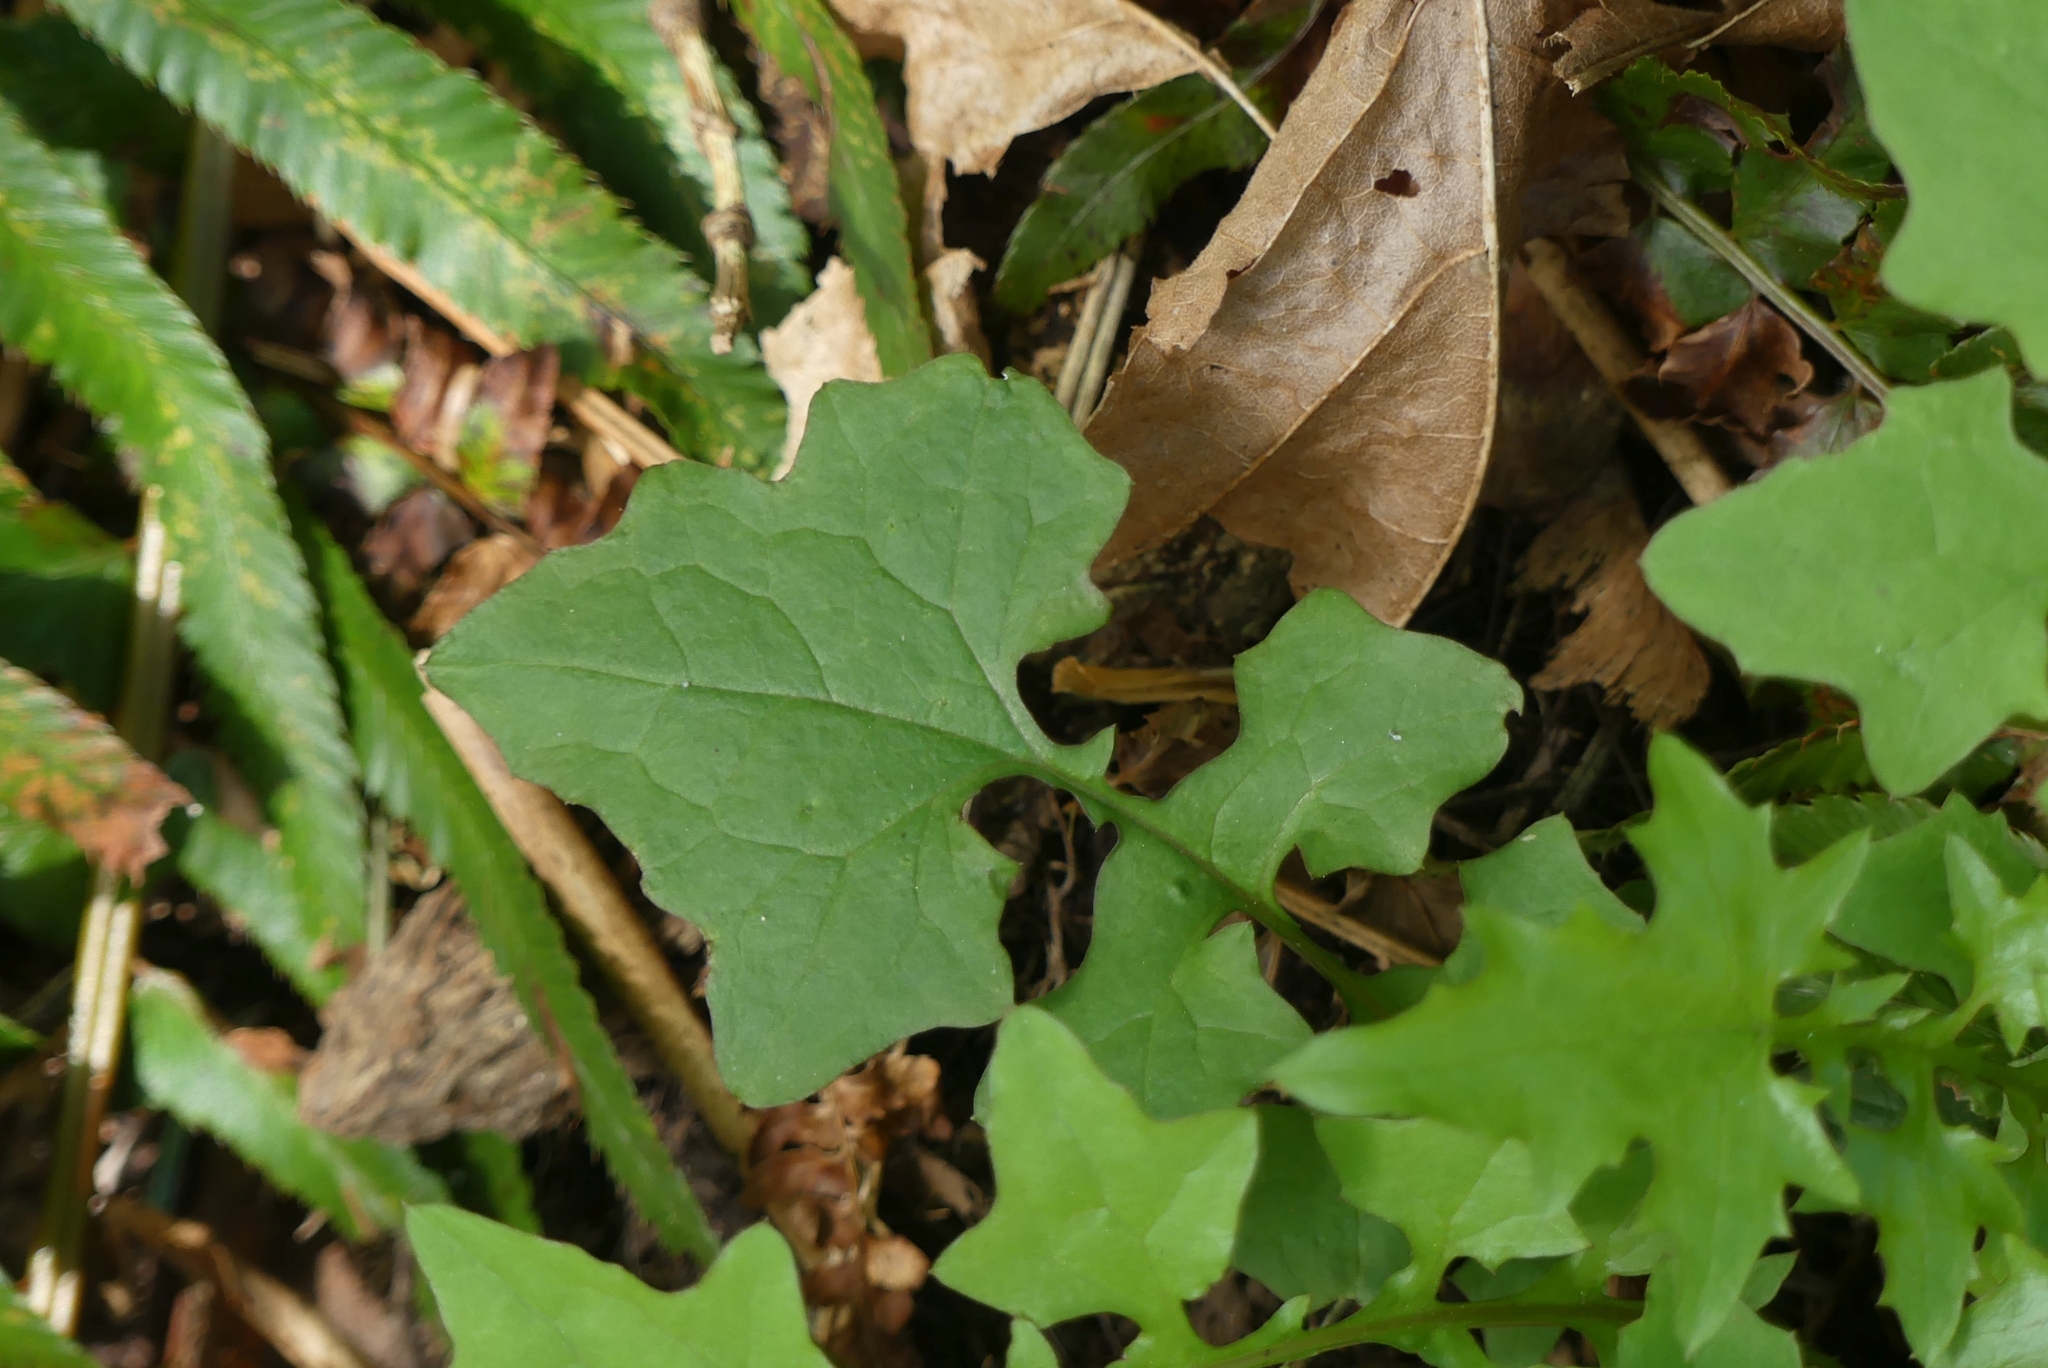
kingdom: Plantae
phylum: Tracheophyta
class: Magnoliopsida
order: Asterales
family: Asteraceae
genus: Mycelis
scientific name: Mycelis muralis
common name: Wall lettuce
